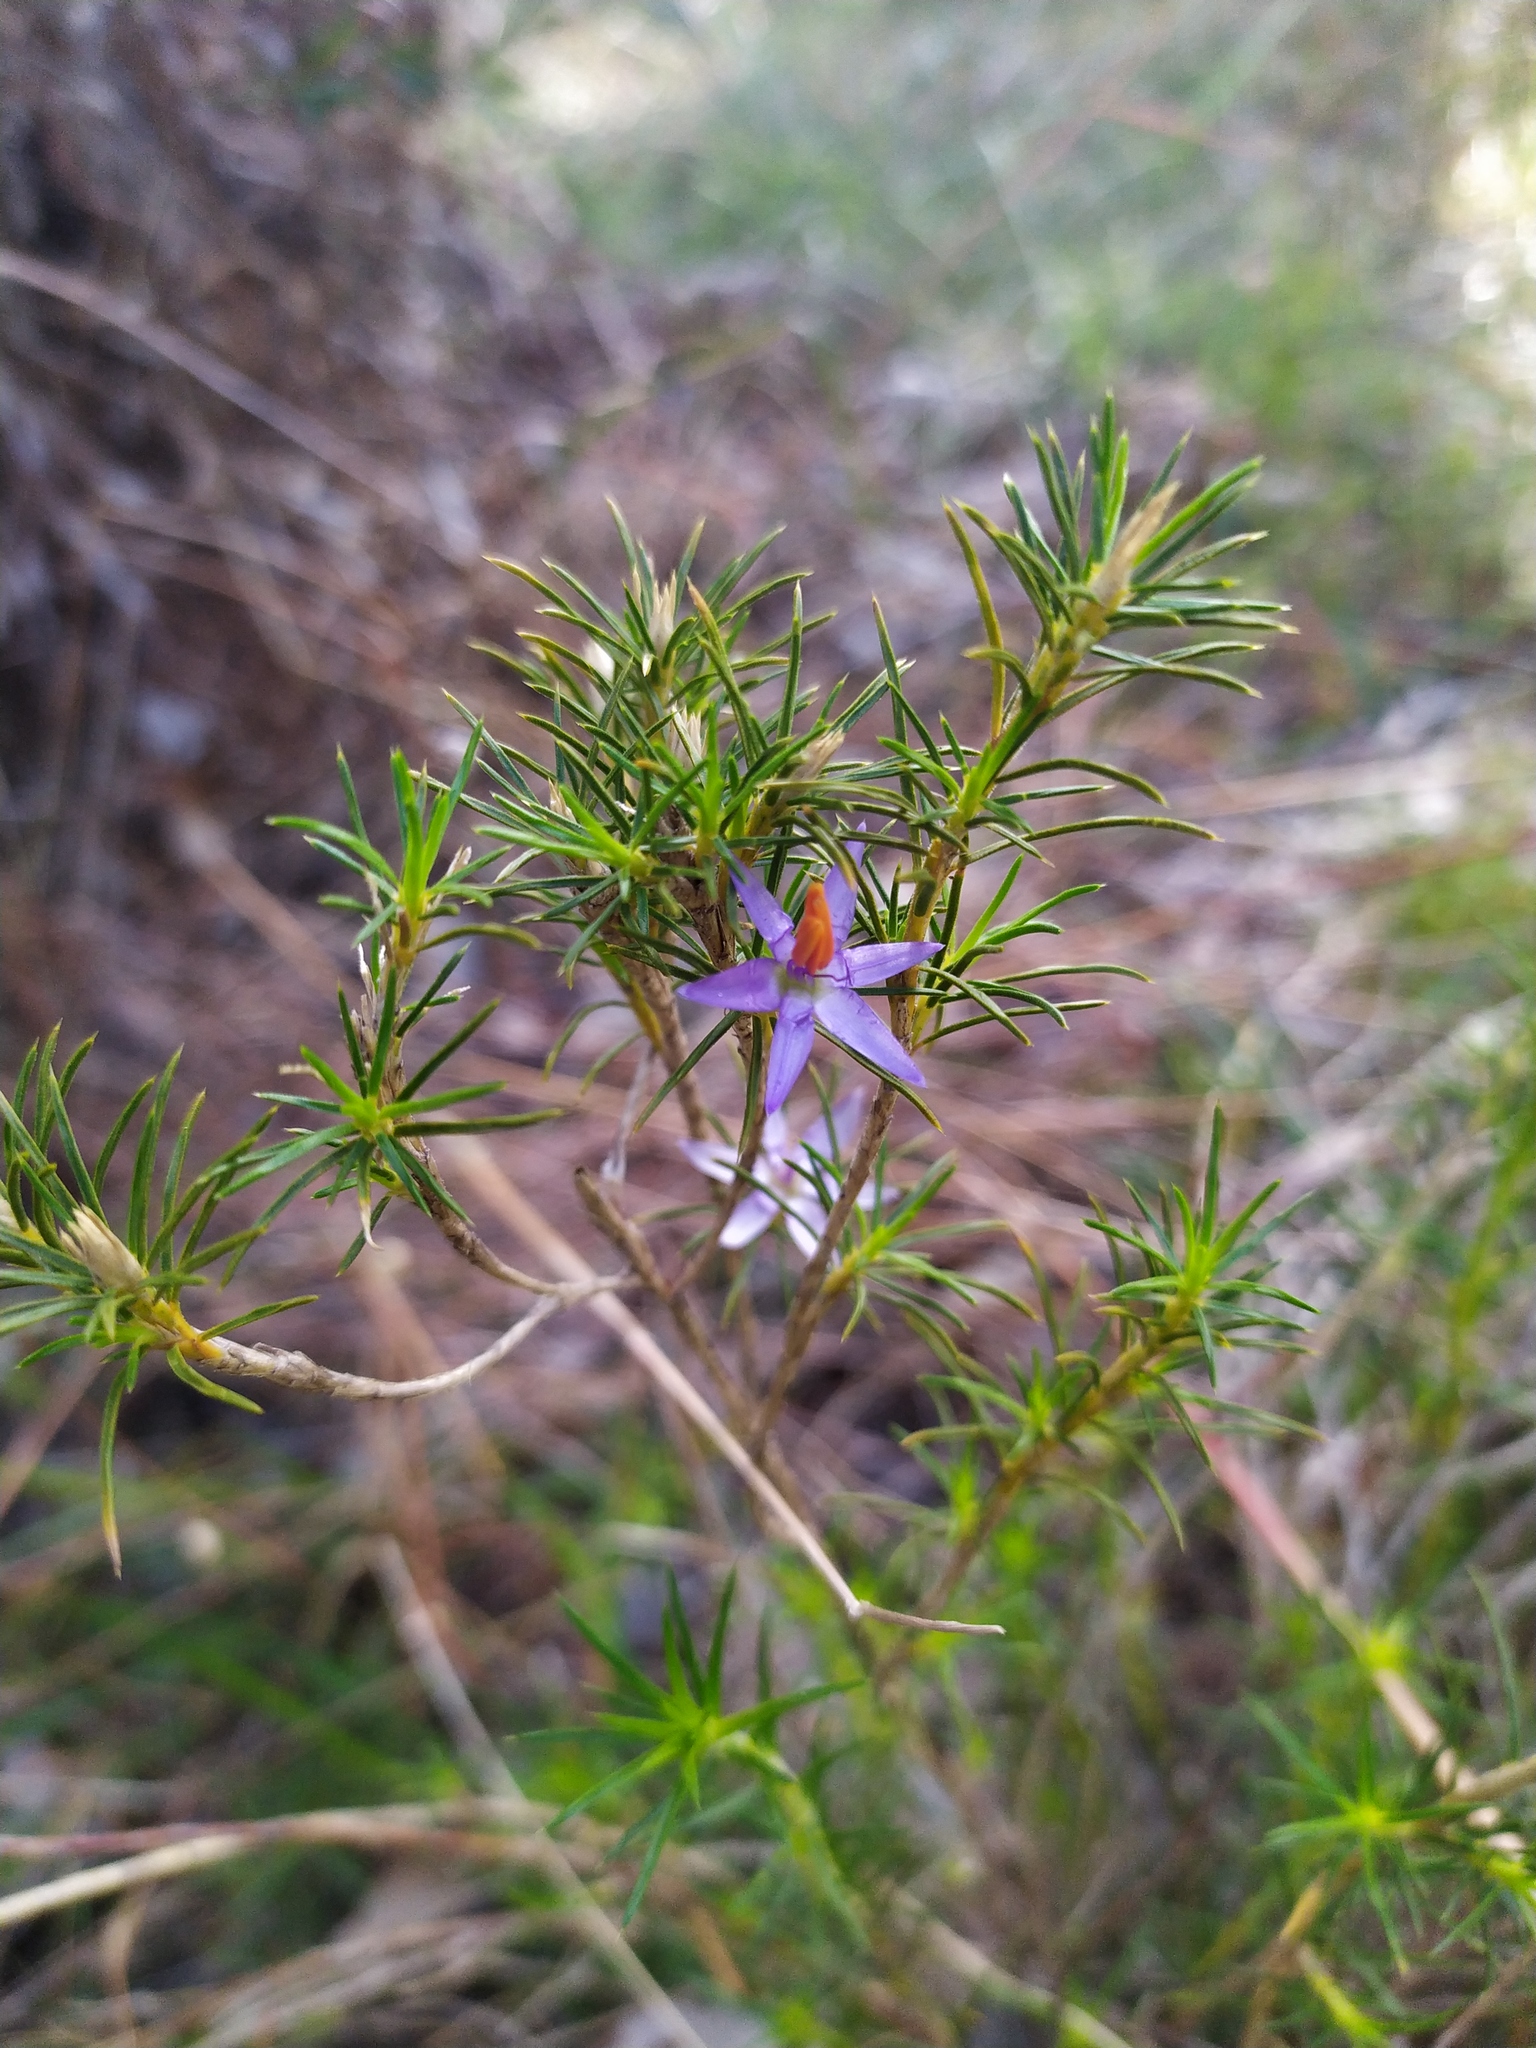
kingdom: Plantae
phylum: Tracheophyta
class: Liliopsida
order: Arecales
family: Dasypogonaceae
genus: Calectasia
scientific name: Calectasia narragara
